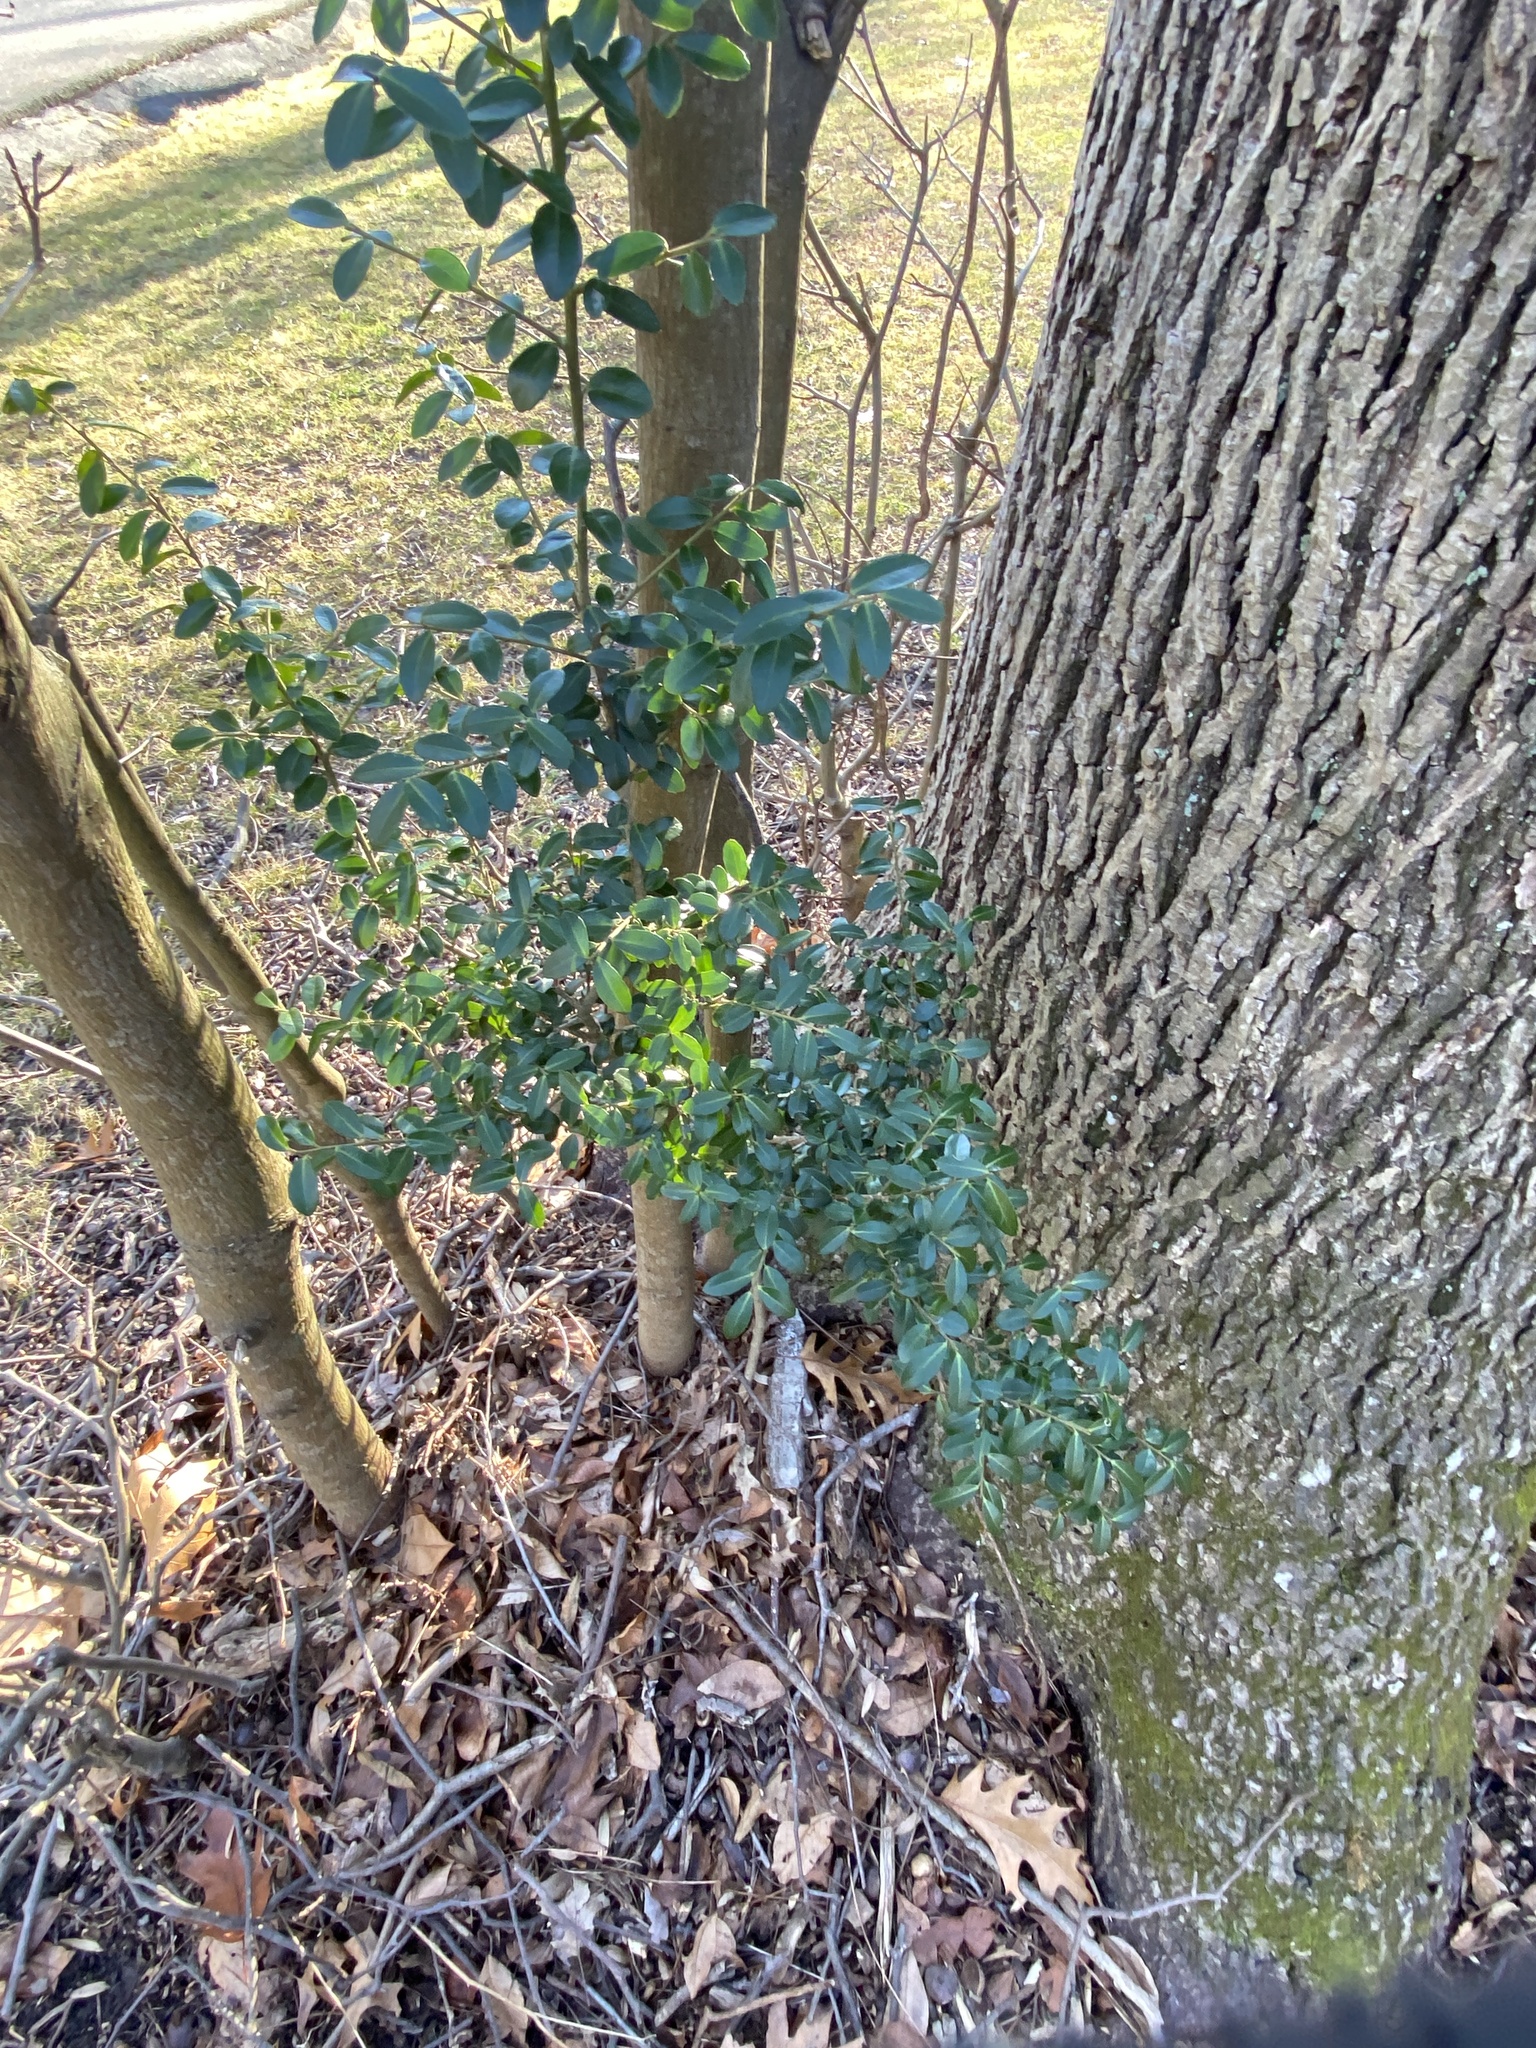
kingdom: Plantae
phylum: Tracheophyta
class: Magnoliopsida
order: Aquifoliales
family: Aquifoliaceae
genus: Ilex
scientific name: Ilex crenata
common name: Japanese holly
